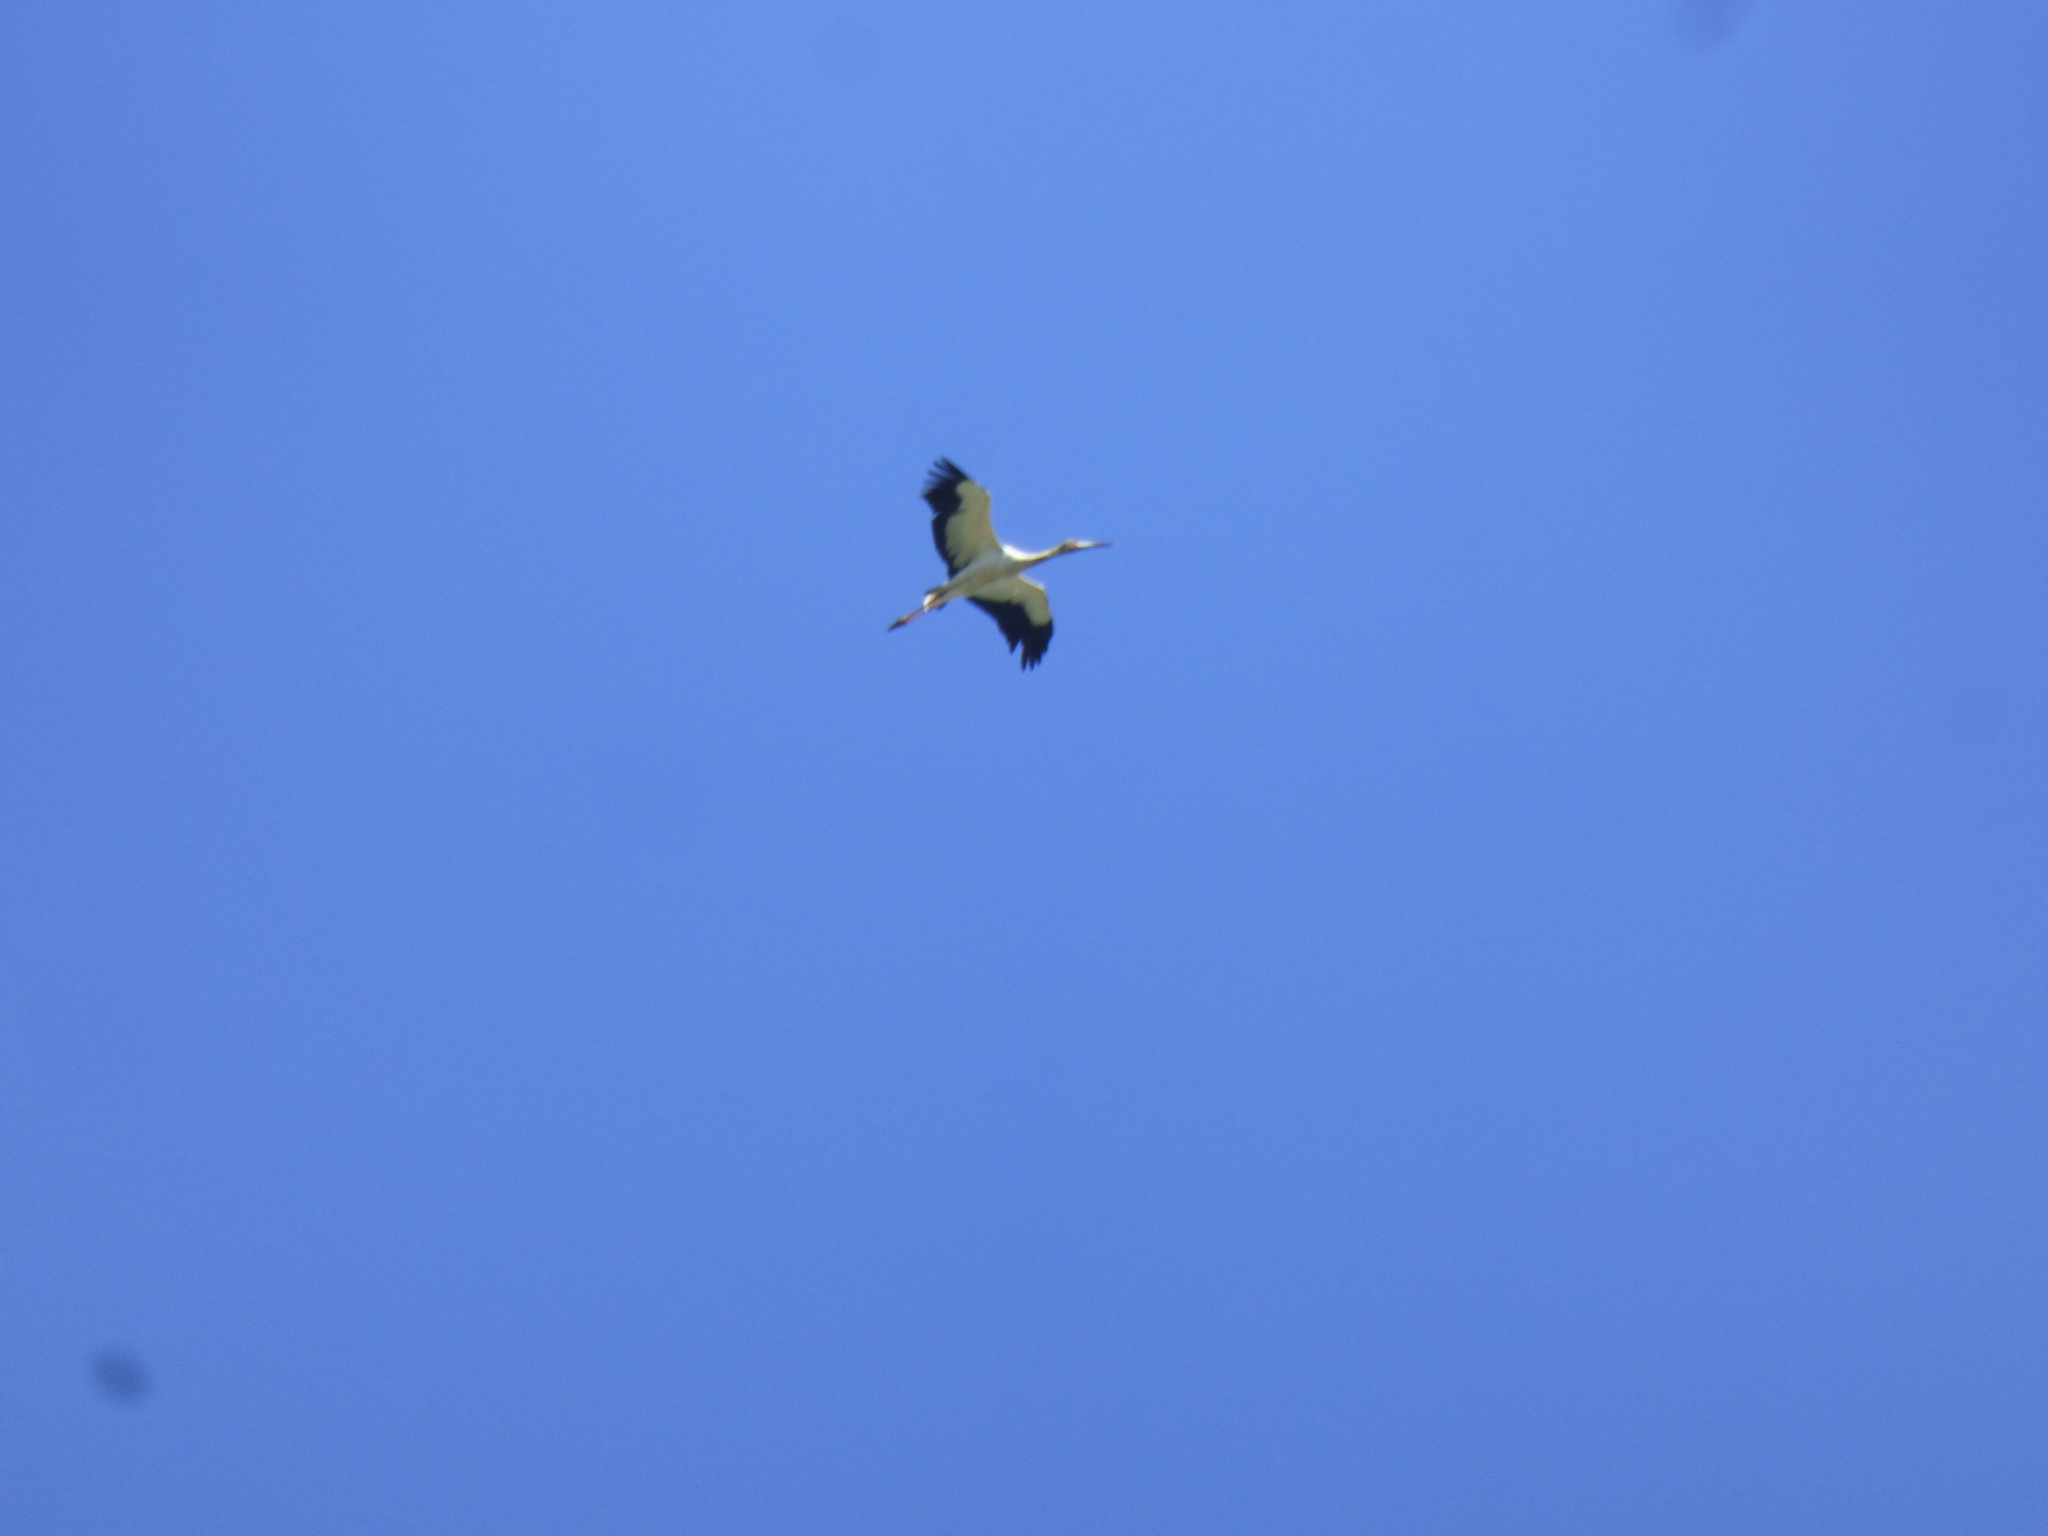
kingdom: Animalia
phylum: Chordata
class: Aves
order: Ciconiiformes
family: Ciconiidae
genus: Ciconia
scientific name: Ciconia maguari
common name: Maguari stork
